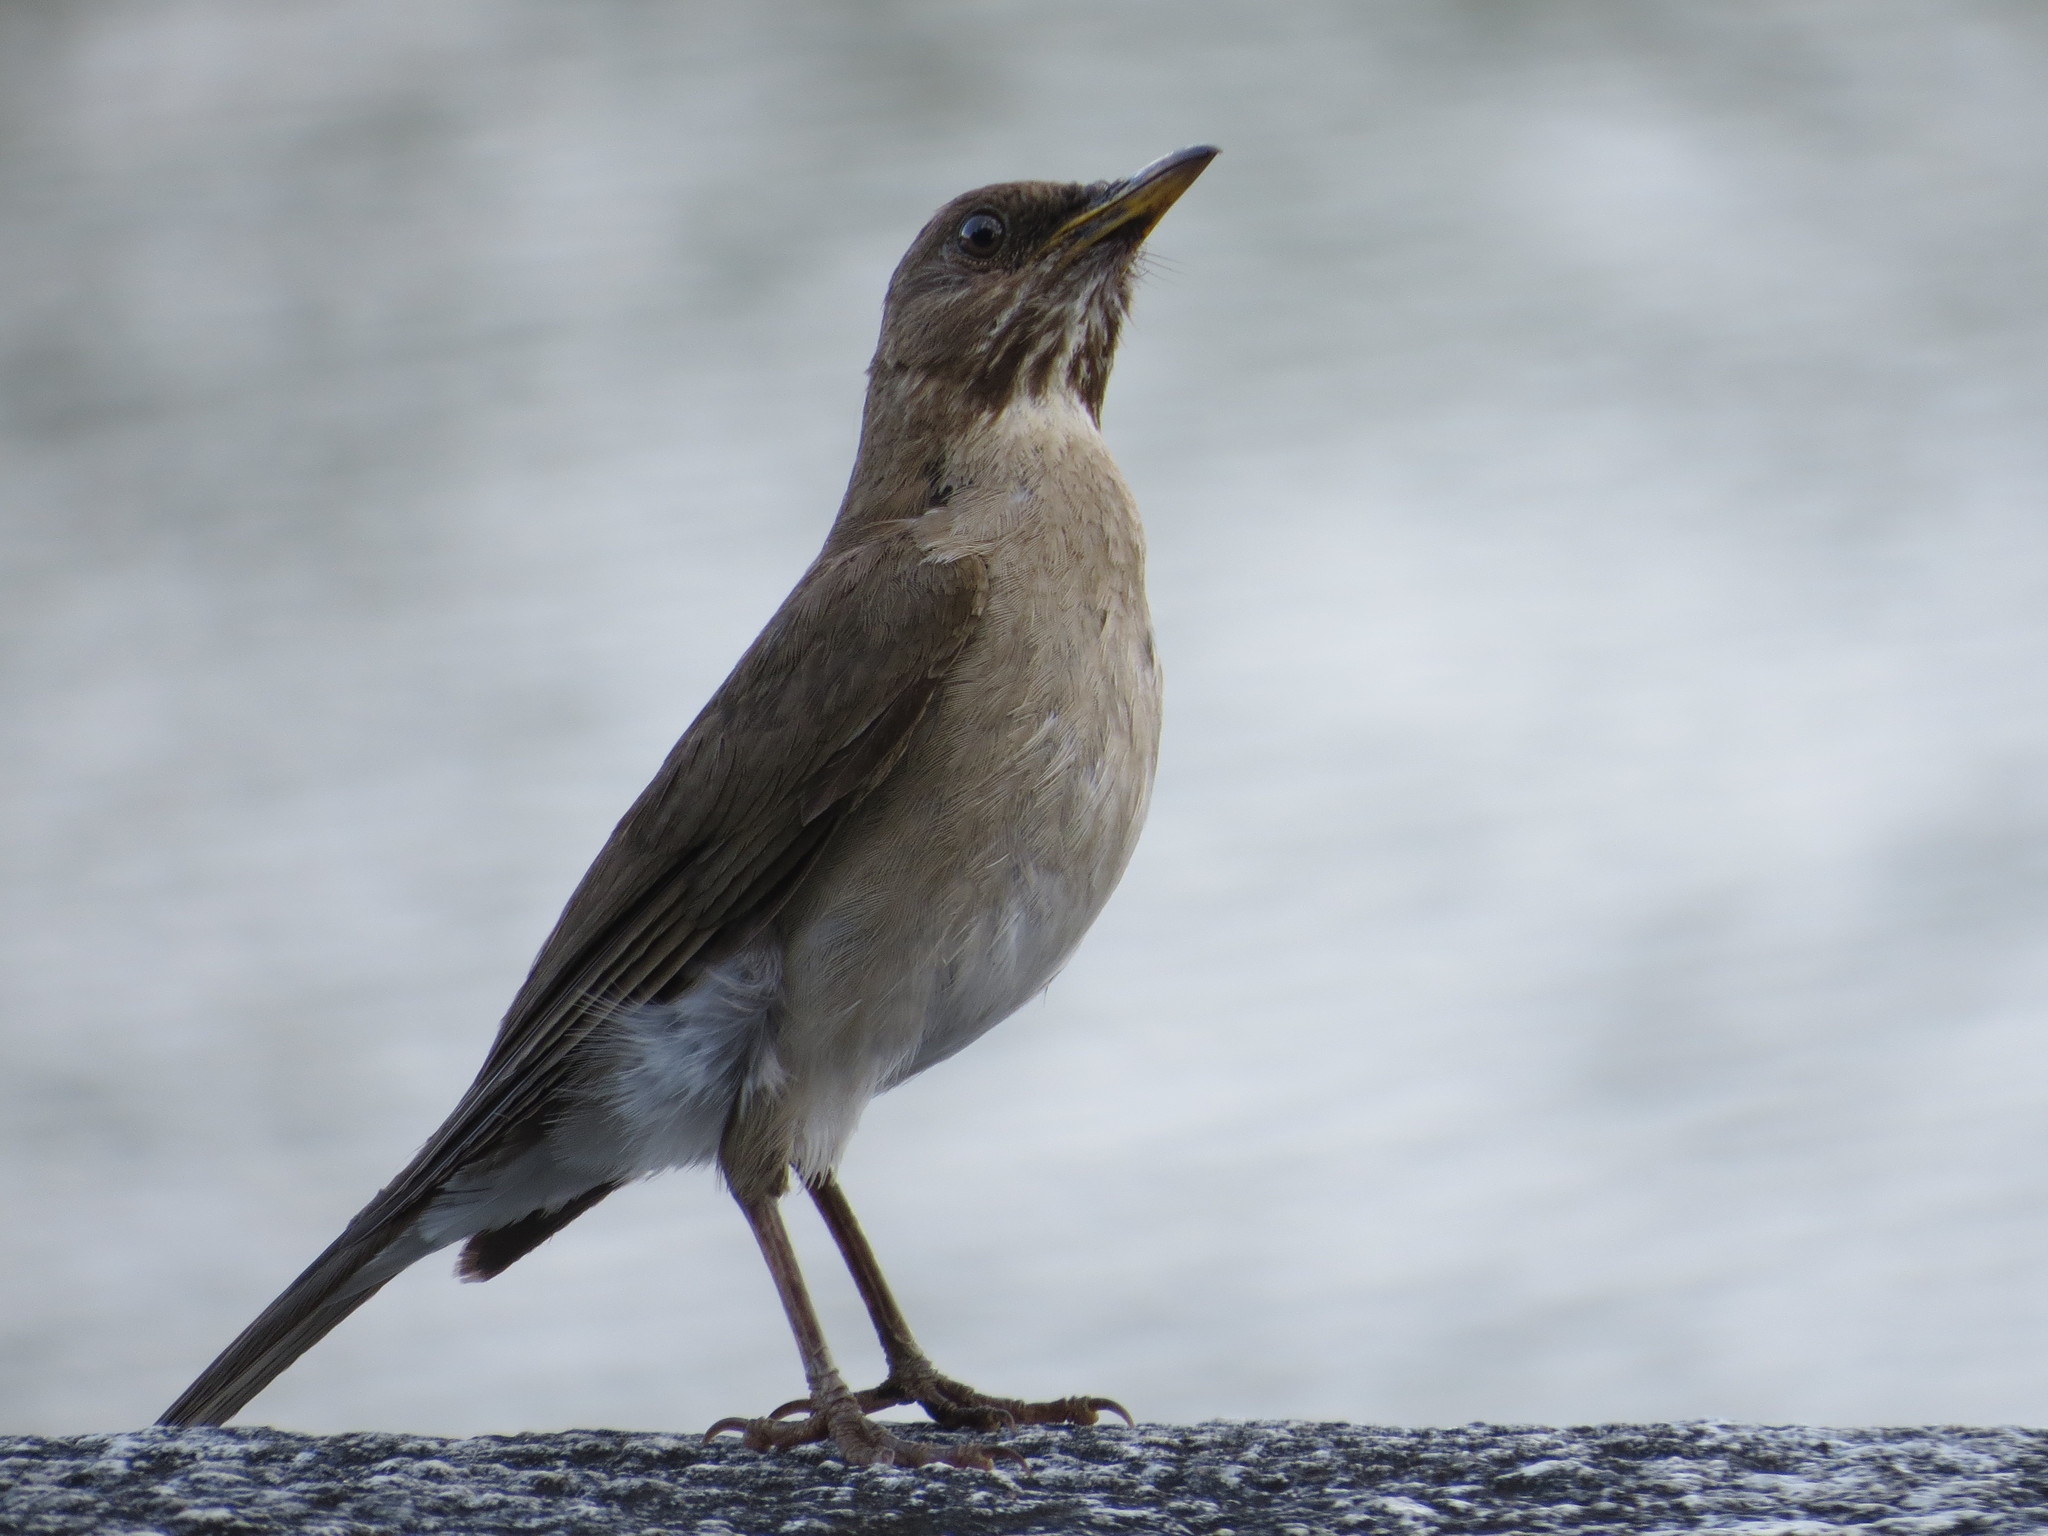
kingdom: Animalia
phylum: Chordata
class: Aves
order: Passeriformes
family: Turdidae
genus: Turdus
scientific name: Turdus amaurochalinus
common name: Creamy-bellied thrush
